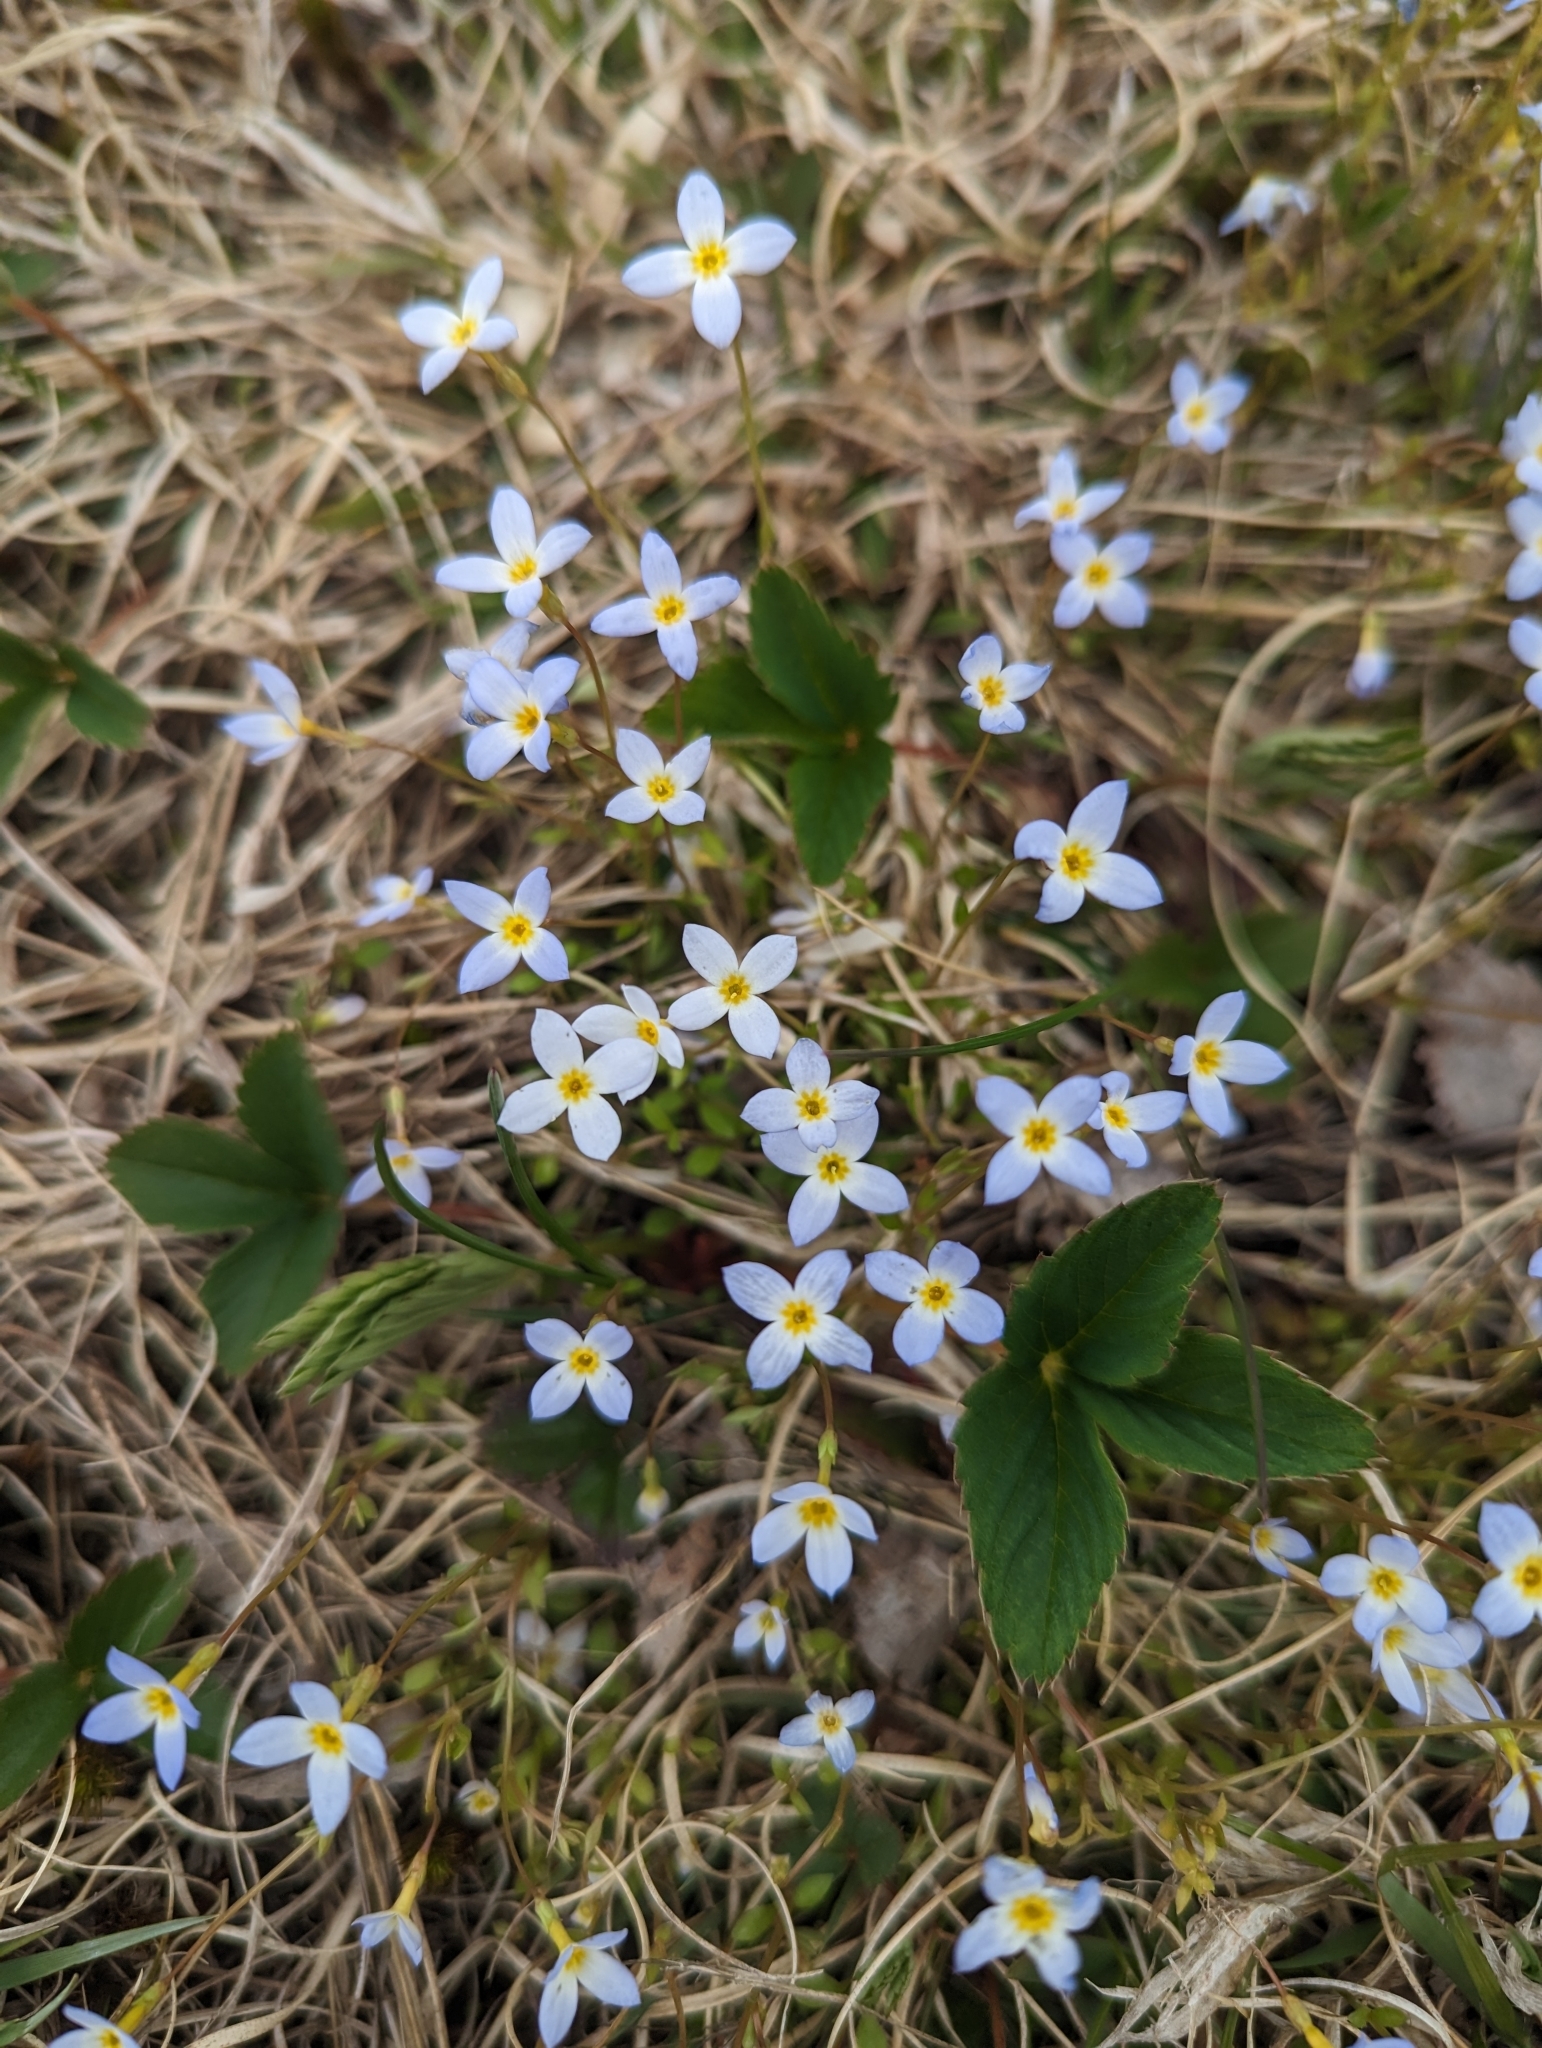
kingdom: Plantae
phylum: Tracheophyta
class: Magnoliopsida
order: Gentianales
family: Rubiaceae
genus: Houstonia
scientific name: Houstonia caerulea
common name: Bluets
